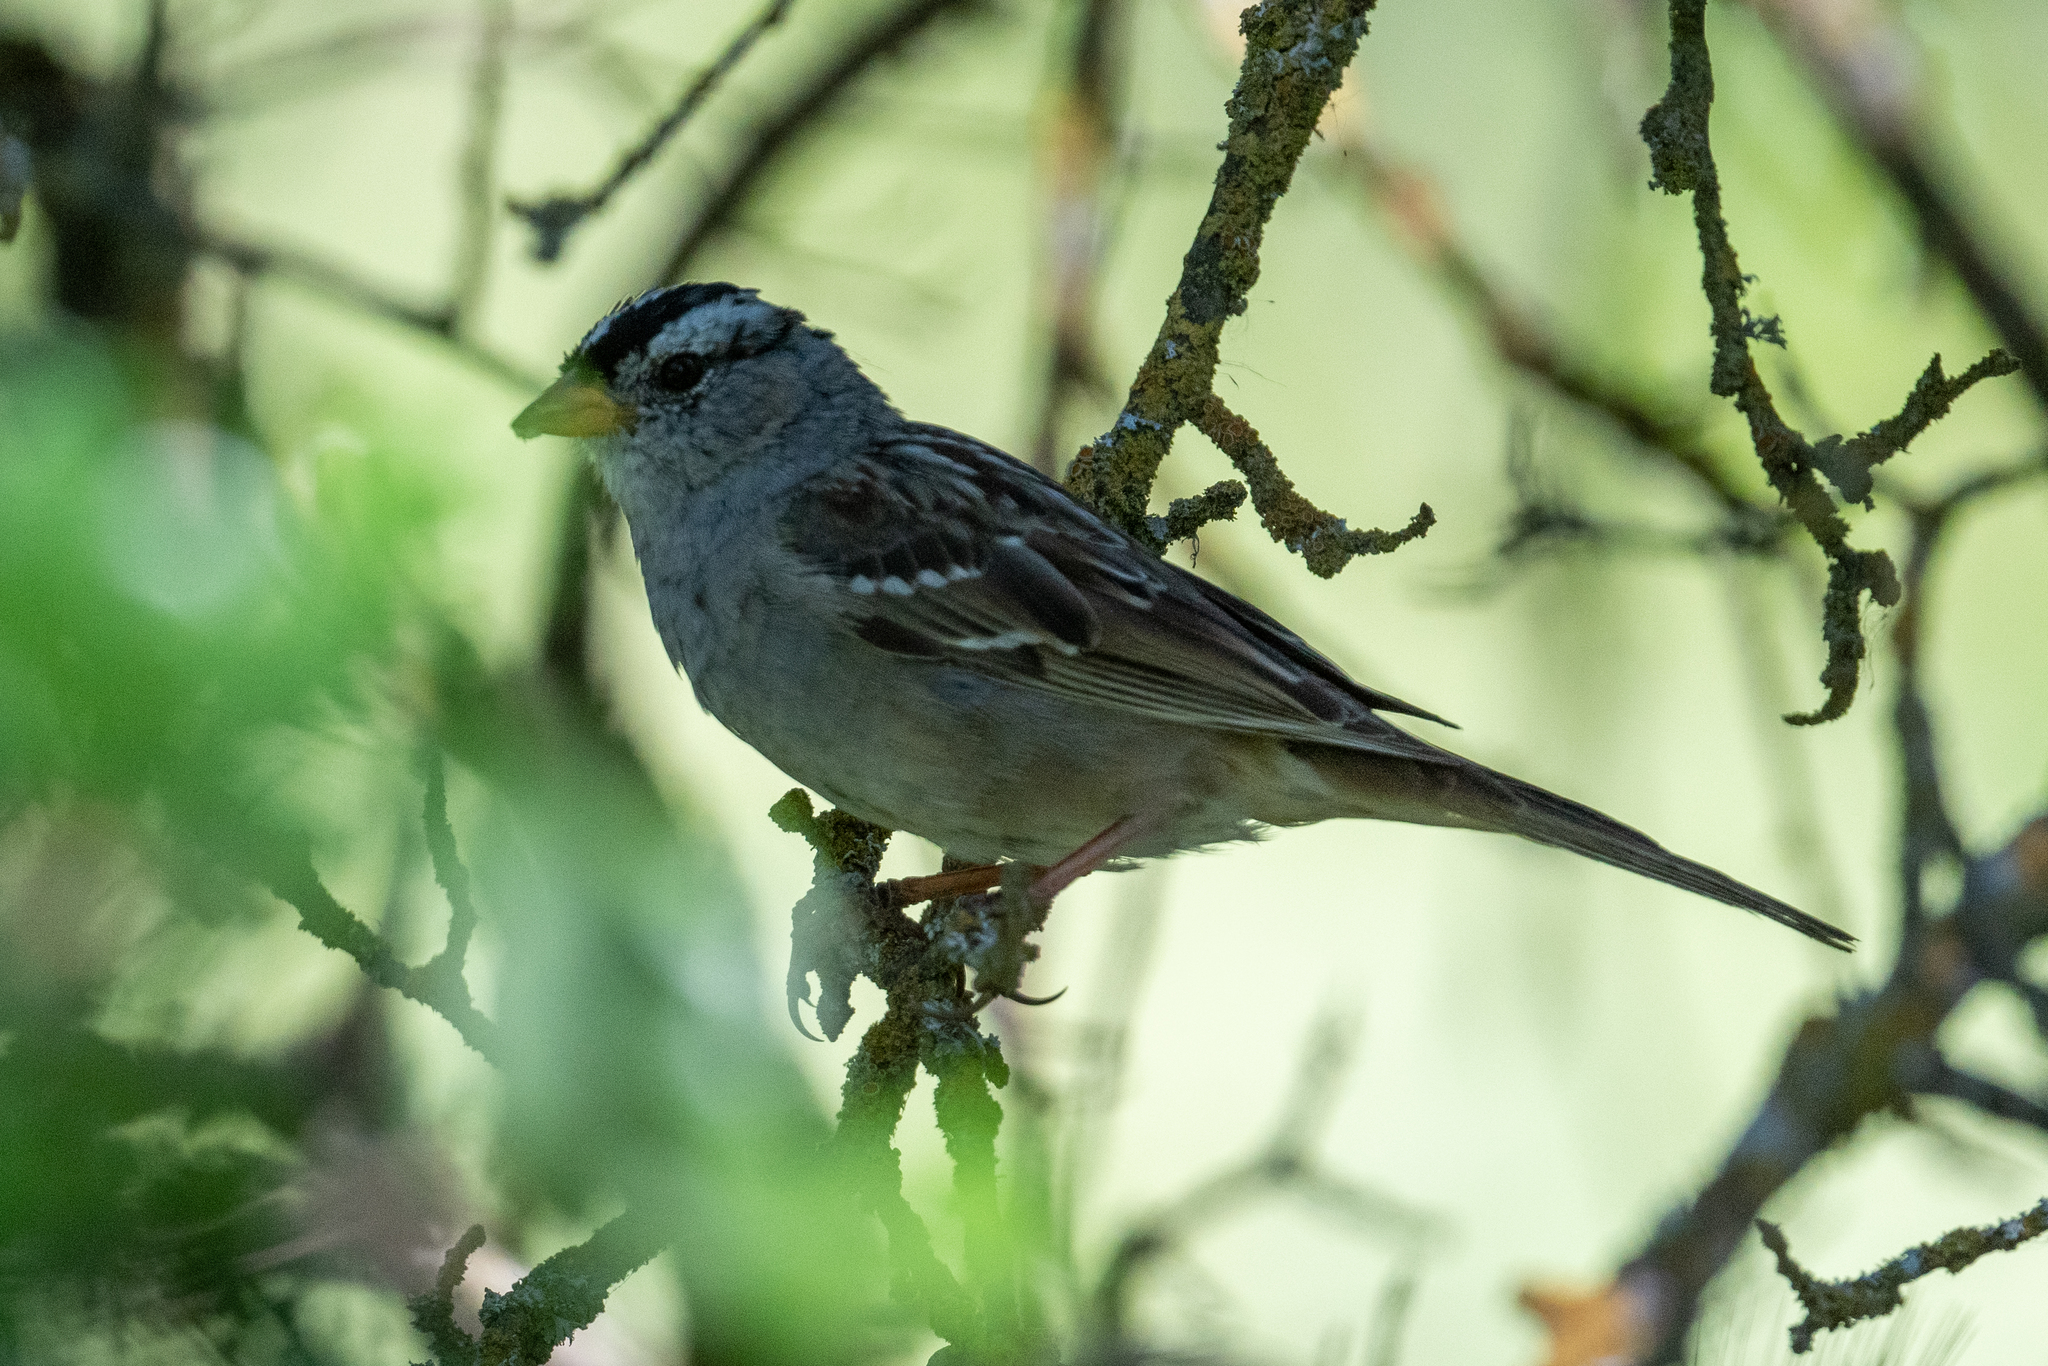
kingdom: Animalia
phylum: Chordata
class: Aves
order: Passeriformes
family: Passerellidae
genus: Zonotrichia
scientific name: Zonotrichia leucophrys
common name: White-crowned sparrow
